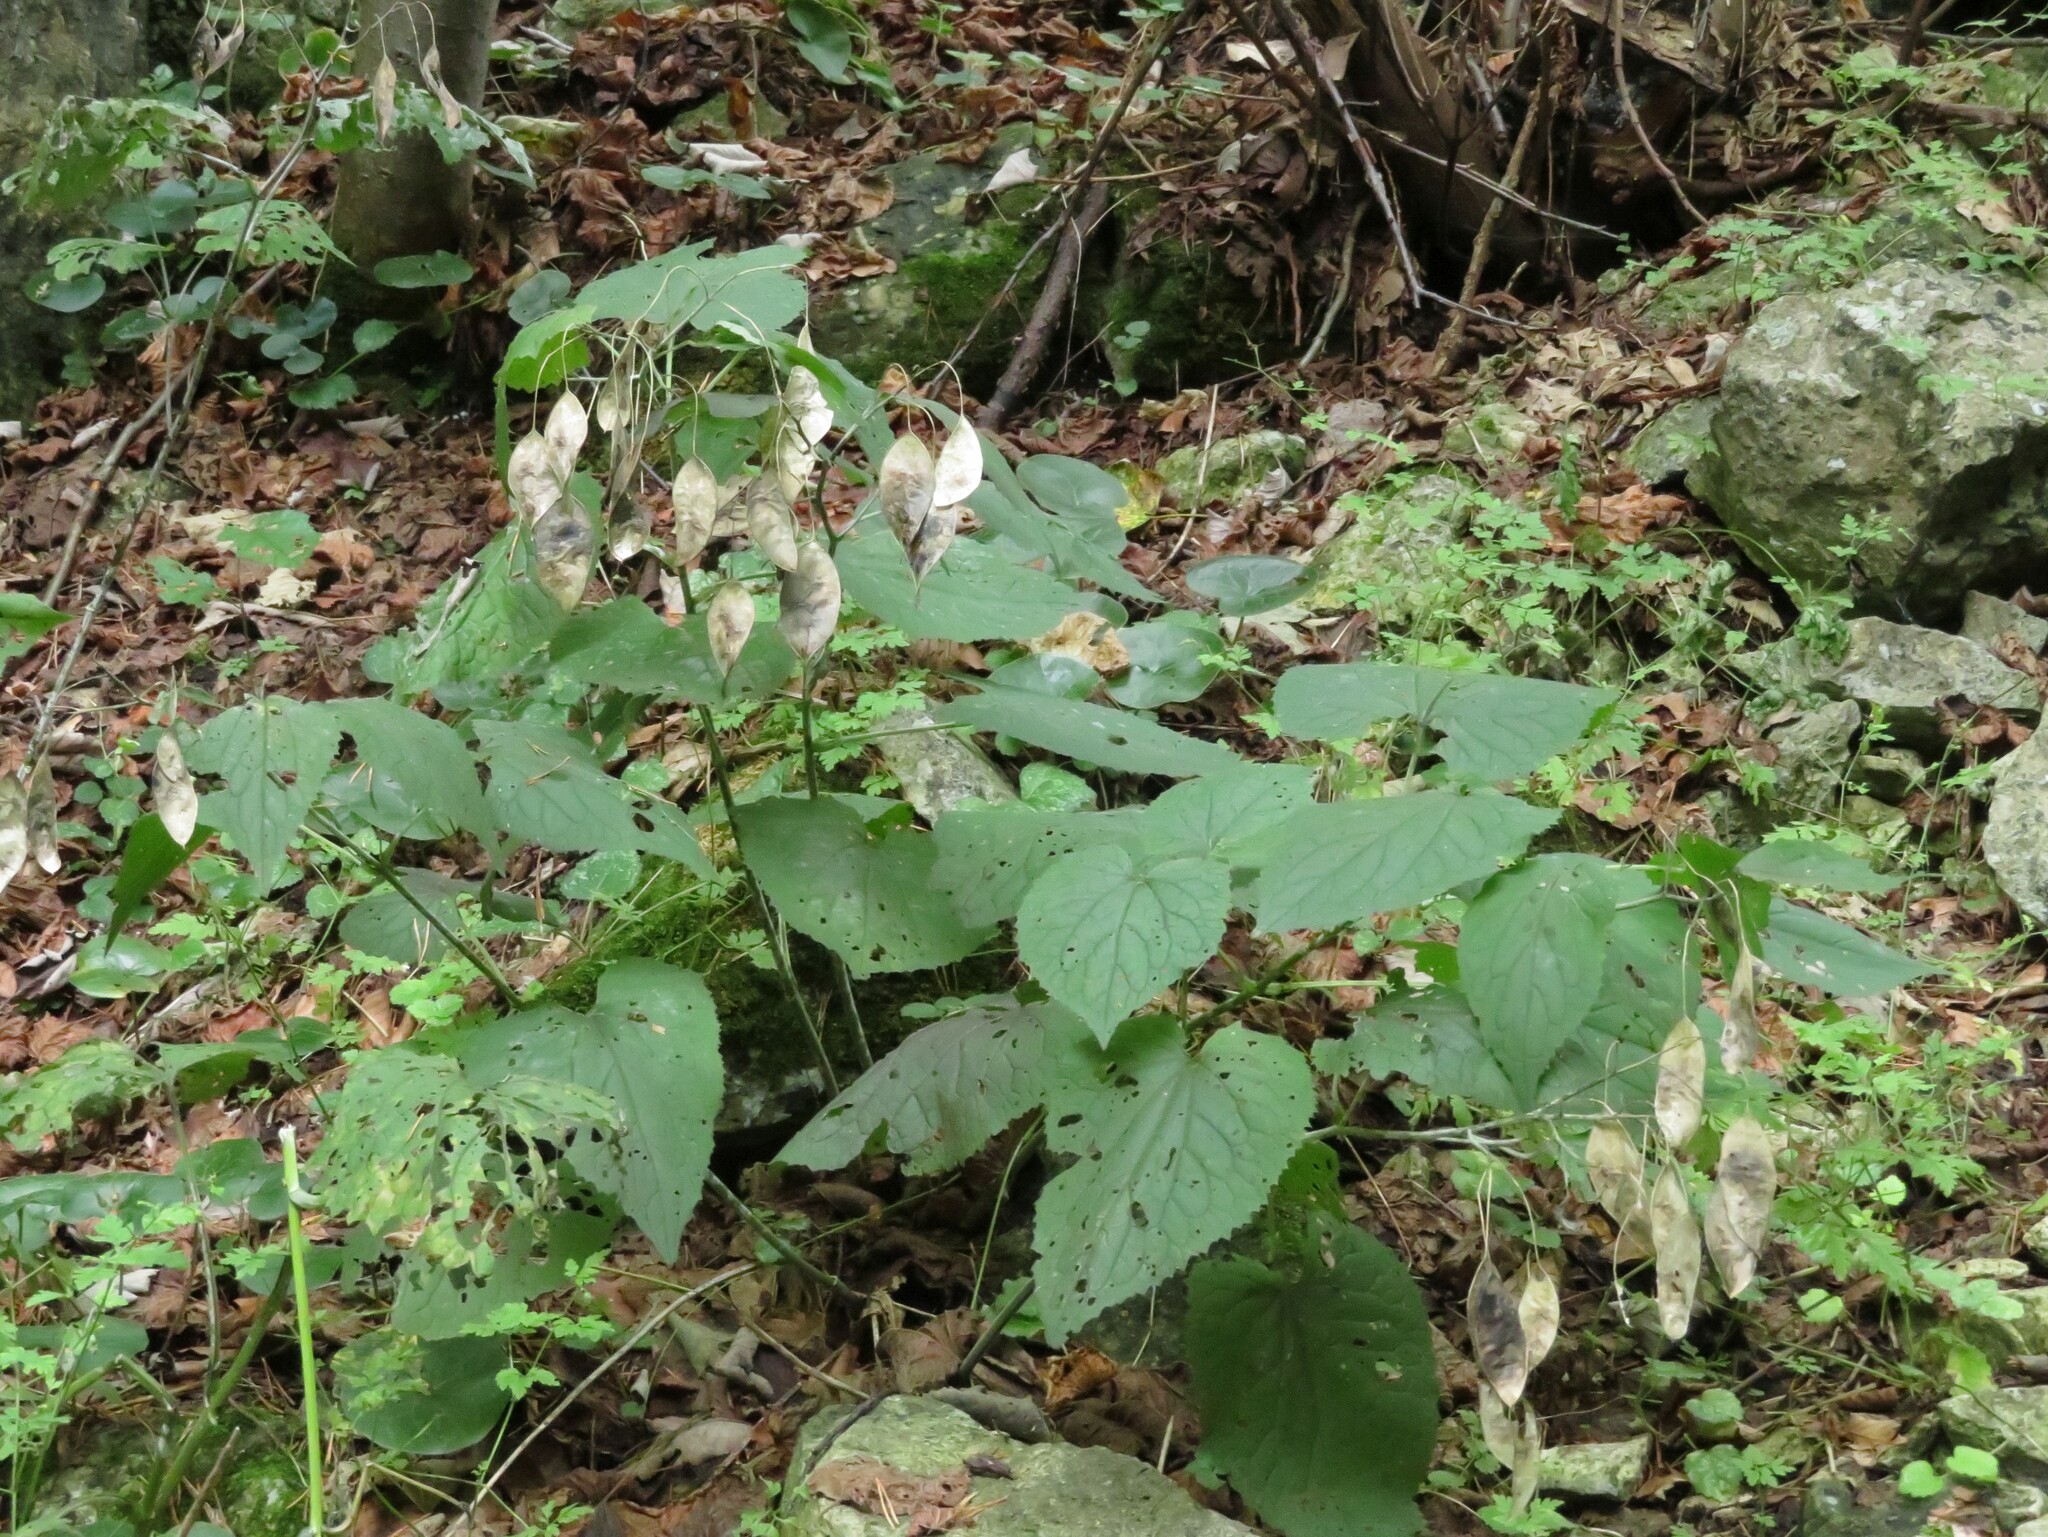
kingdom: Plantae
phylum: Tracheophyta
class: Magnoliopsida
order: Brassicales
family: Brassicaceae
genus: Lunaria
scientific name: Lunaria rediviva
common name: Perennial honesty
